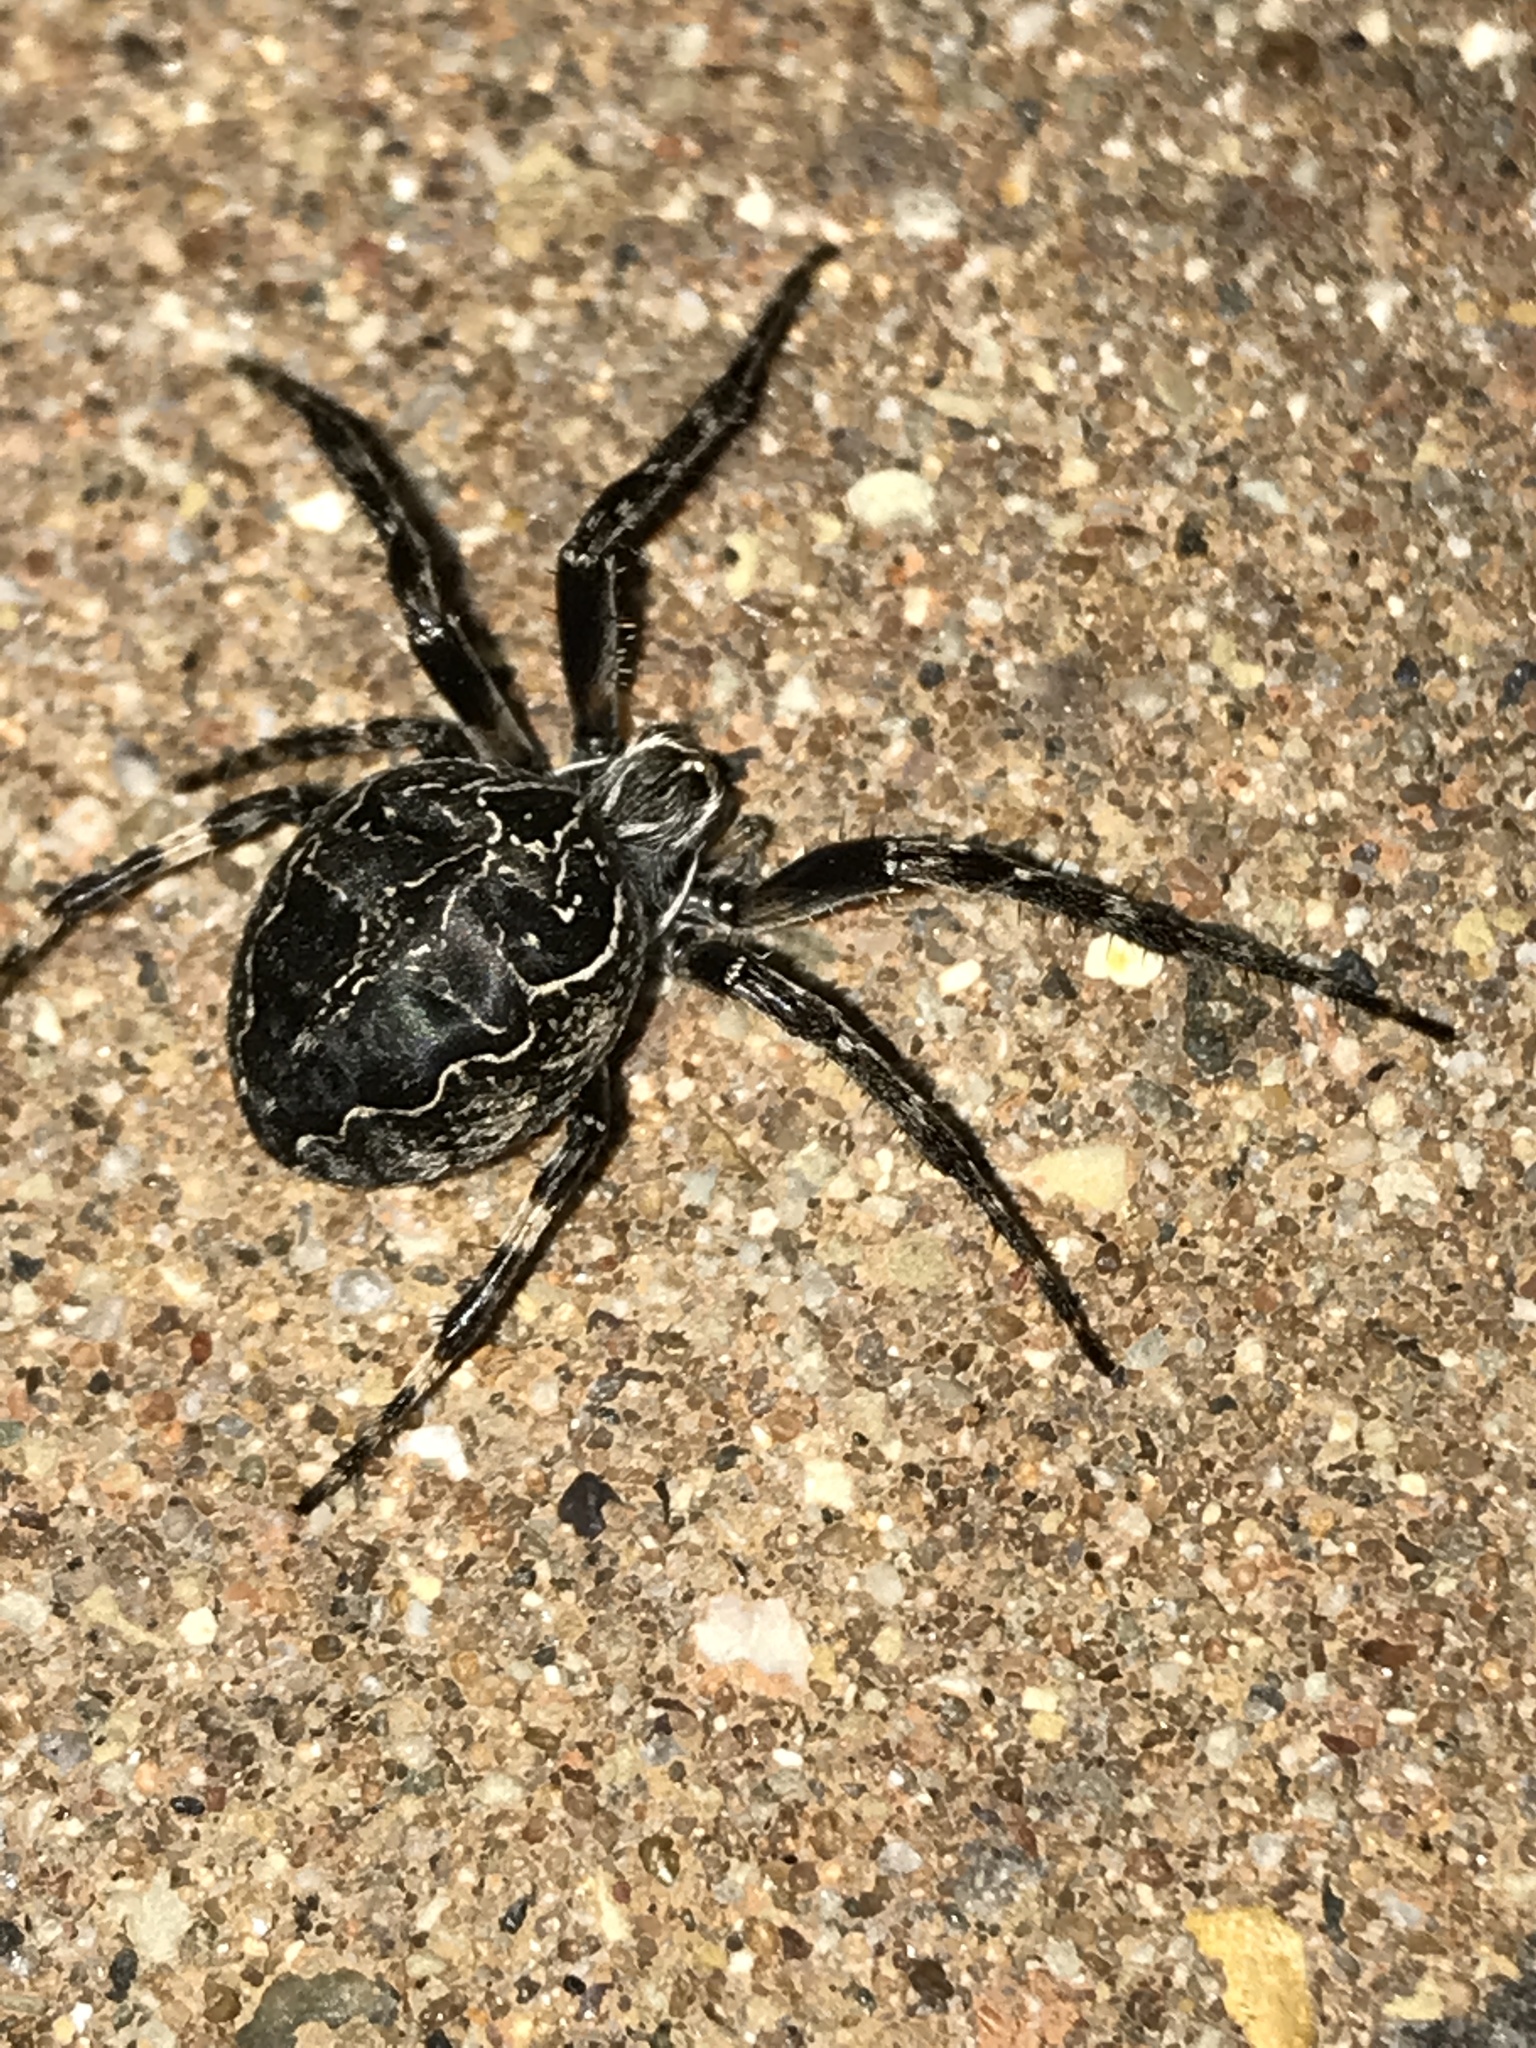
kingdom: Animalia
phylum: Arthropoda
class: Arachnida
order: Araneae
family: Araneidae
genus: Larinioides
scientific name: Larinioides sclopetarius
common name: Bridge orbweaver
